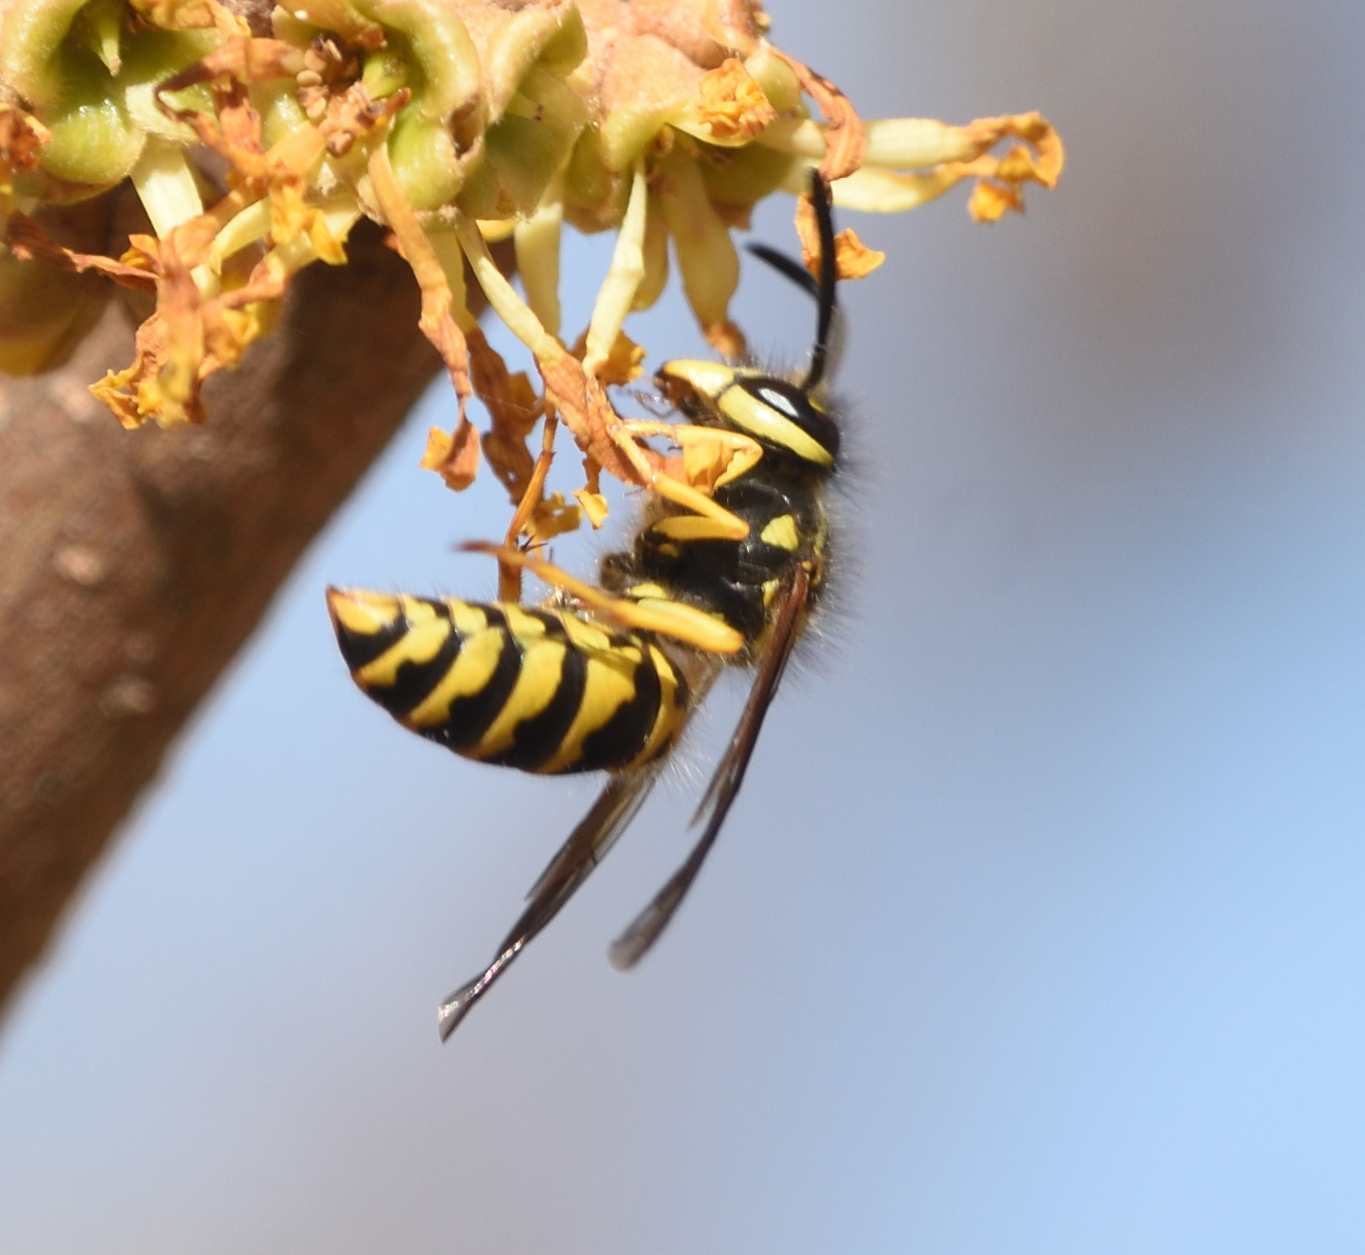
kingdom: Animalia
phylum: Arthropoda
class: Insecta
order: Hymenoptera
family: Vespidae
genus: Vespula
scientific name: Vespula maculifrons
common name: Eastern yellowjacket
